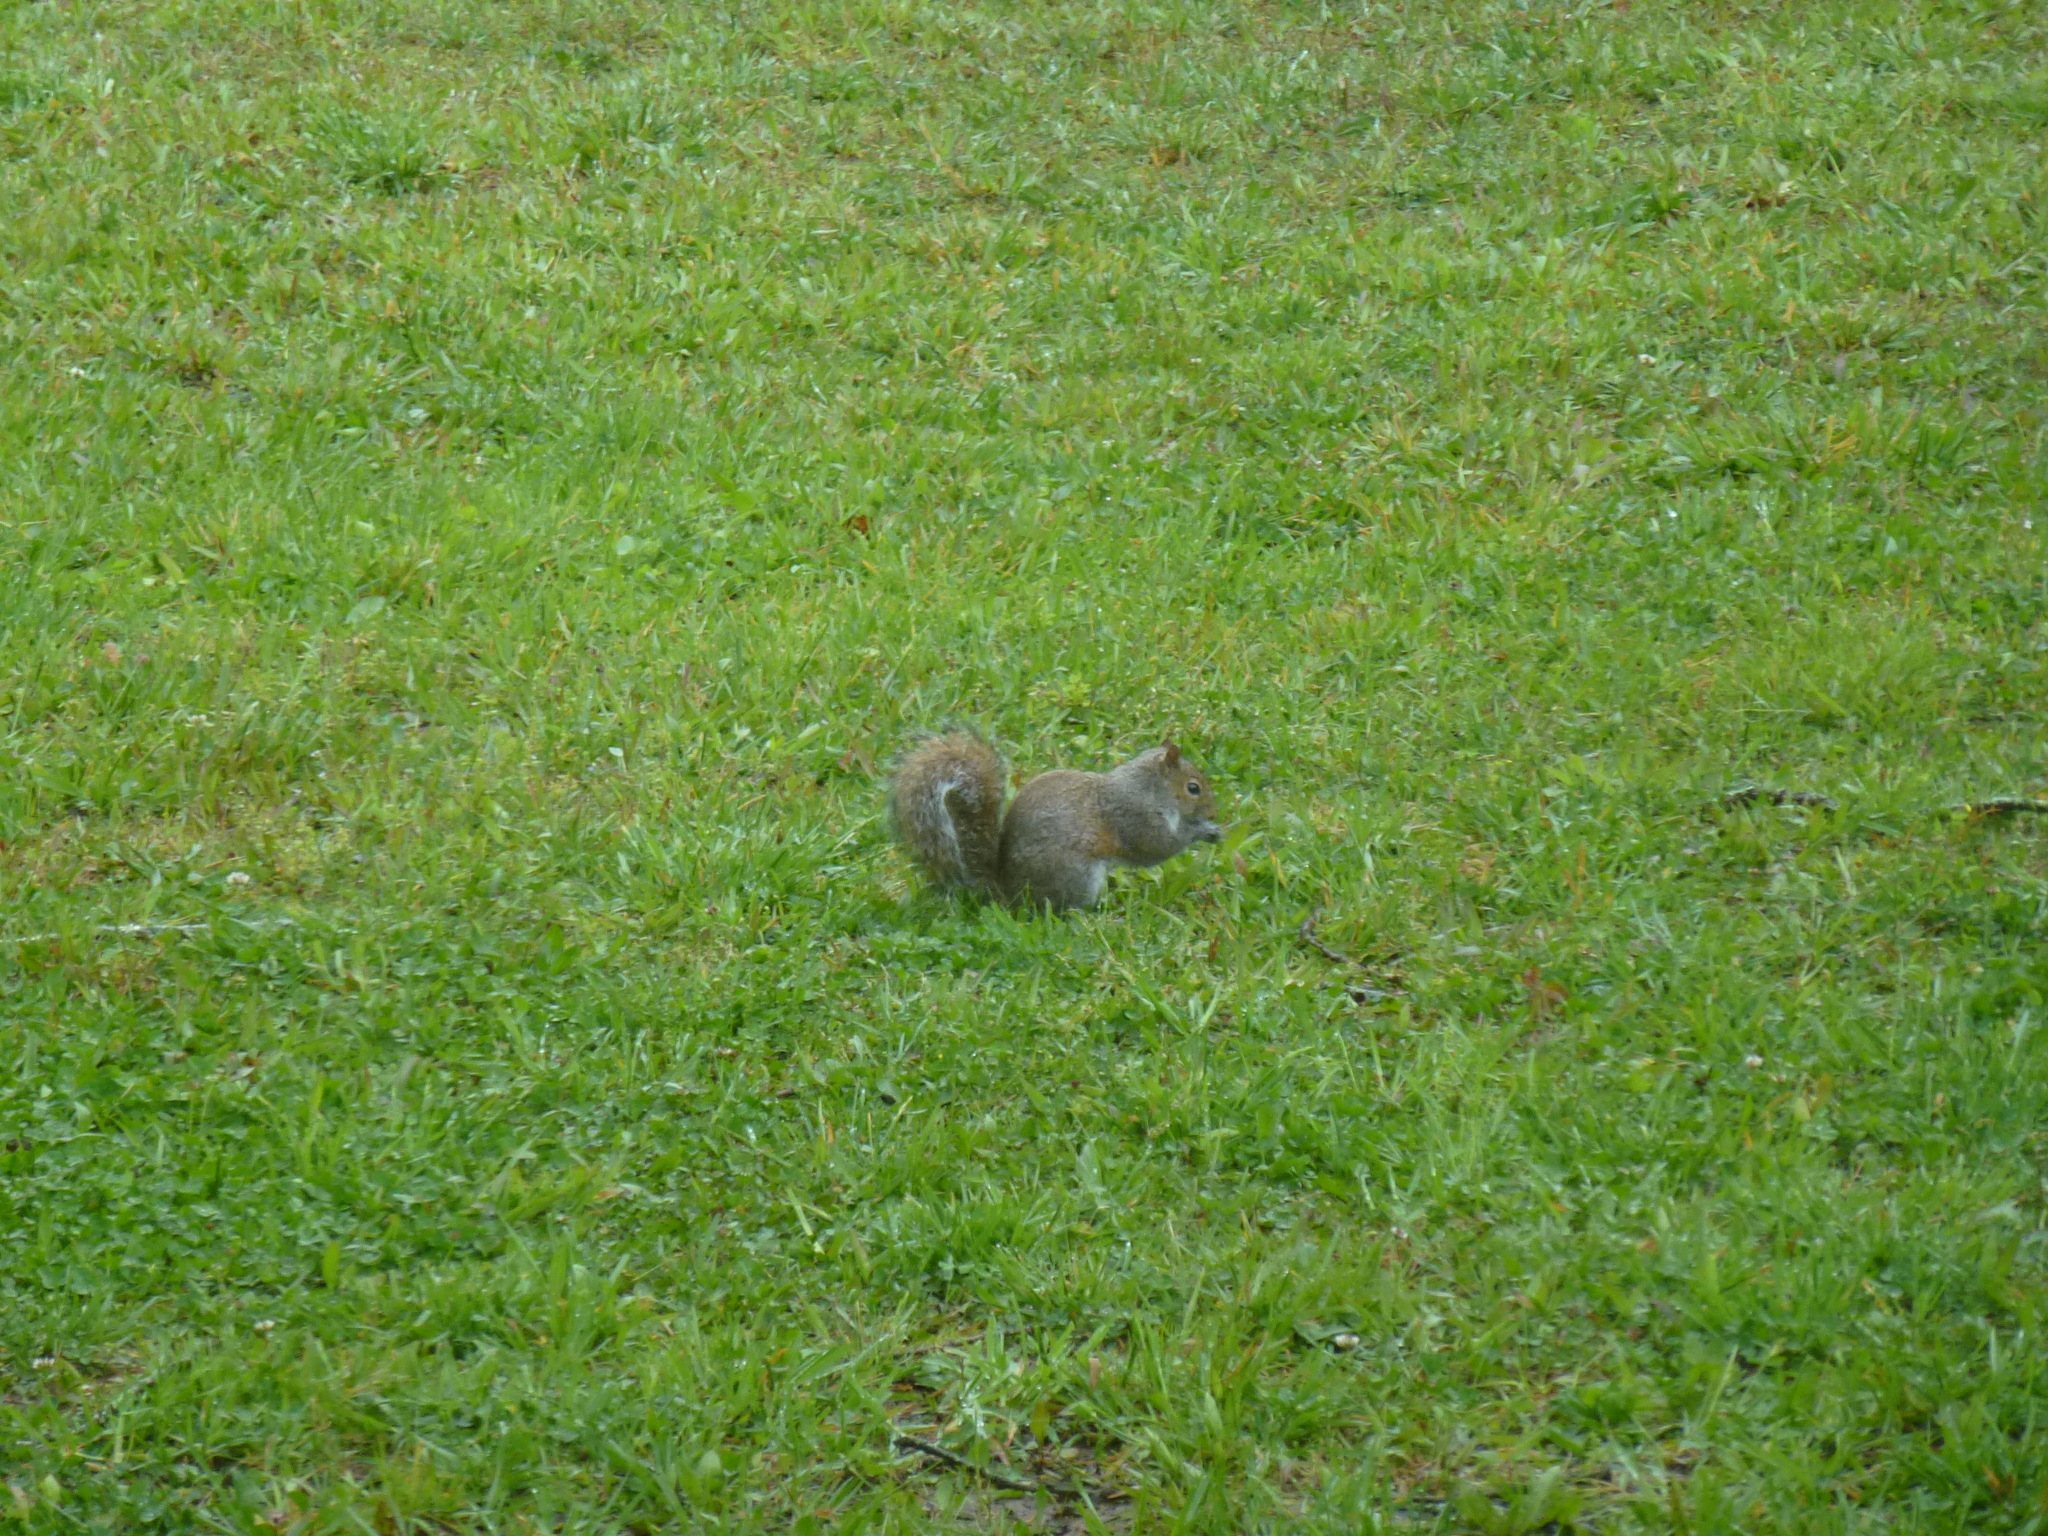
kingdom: Animalia
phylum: Chordata
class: Mammalia
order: Rodentia
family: Sciuridae
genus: Sciurus
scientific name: Sciurus carolinensis
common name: Eastern gray squirrel
